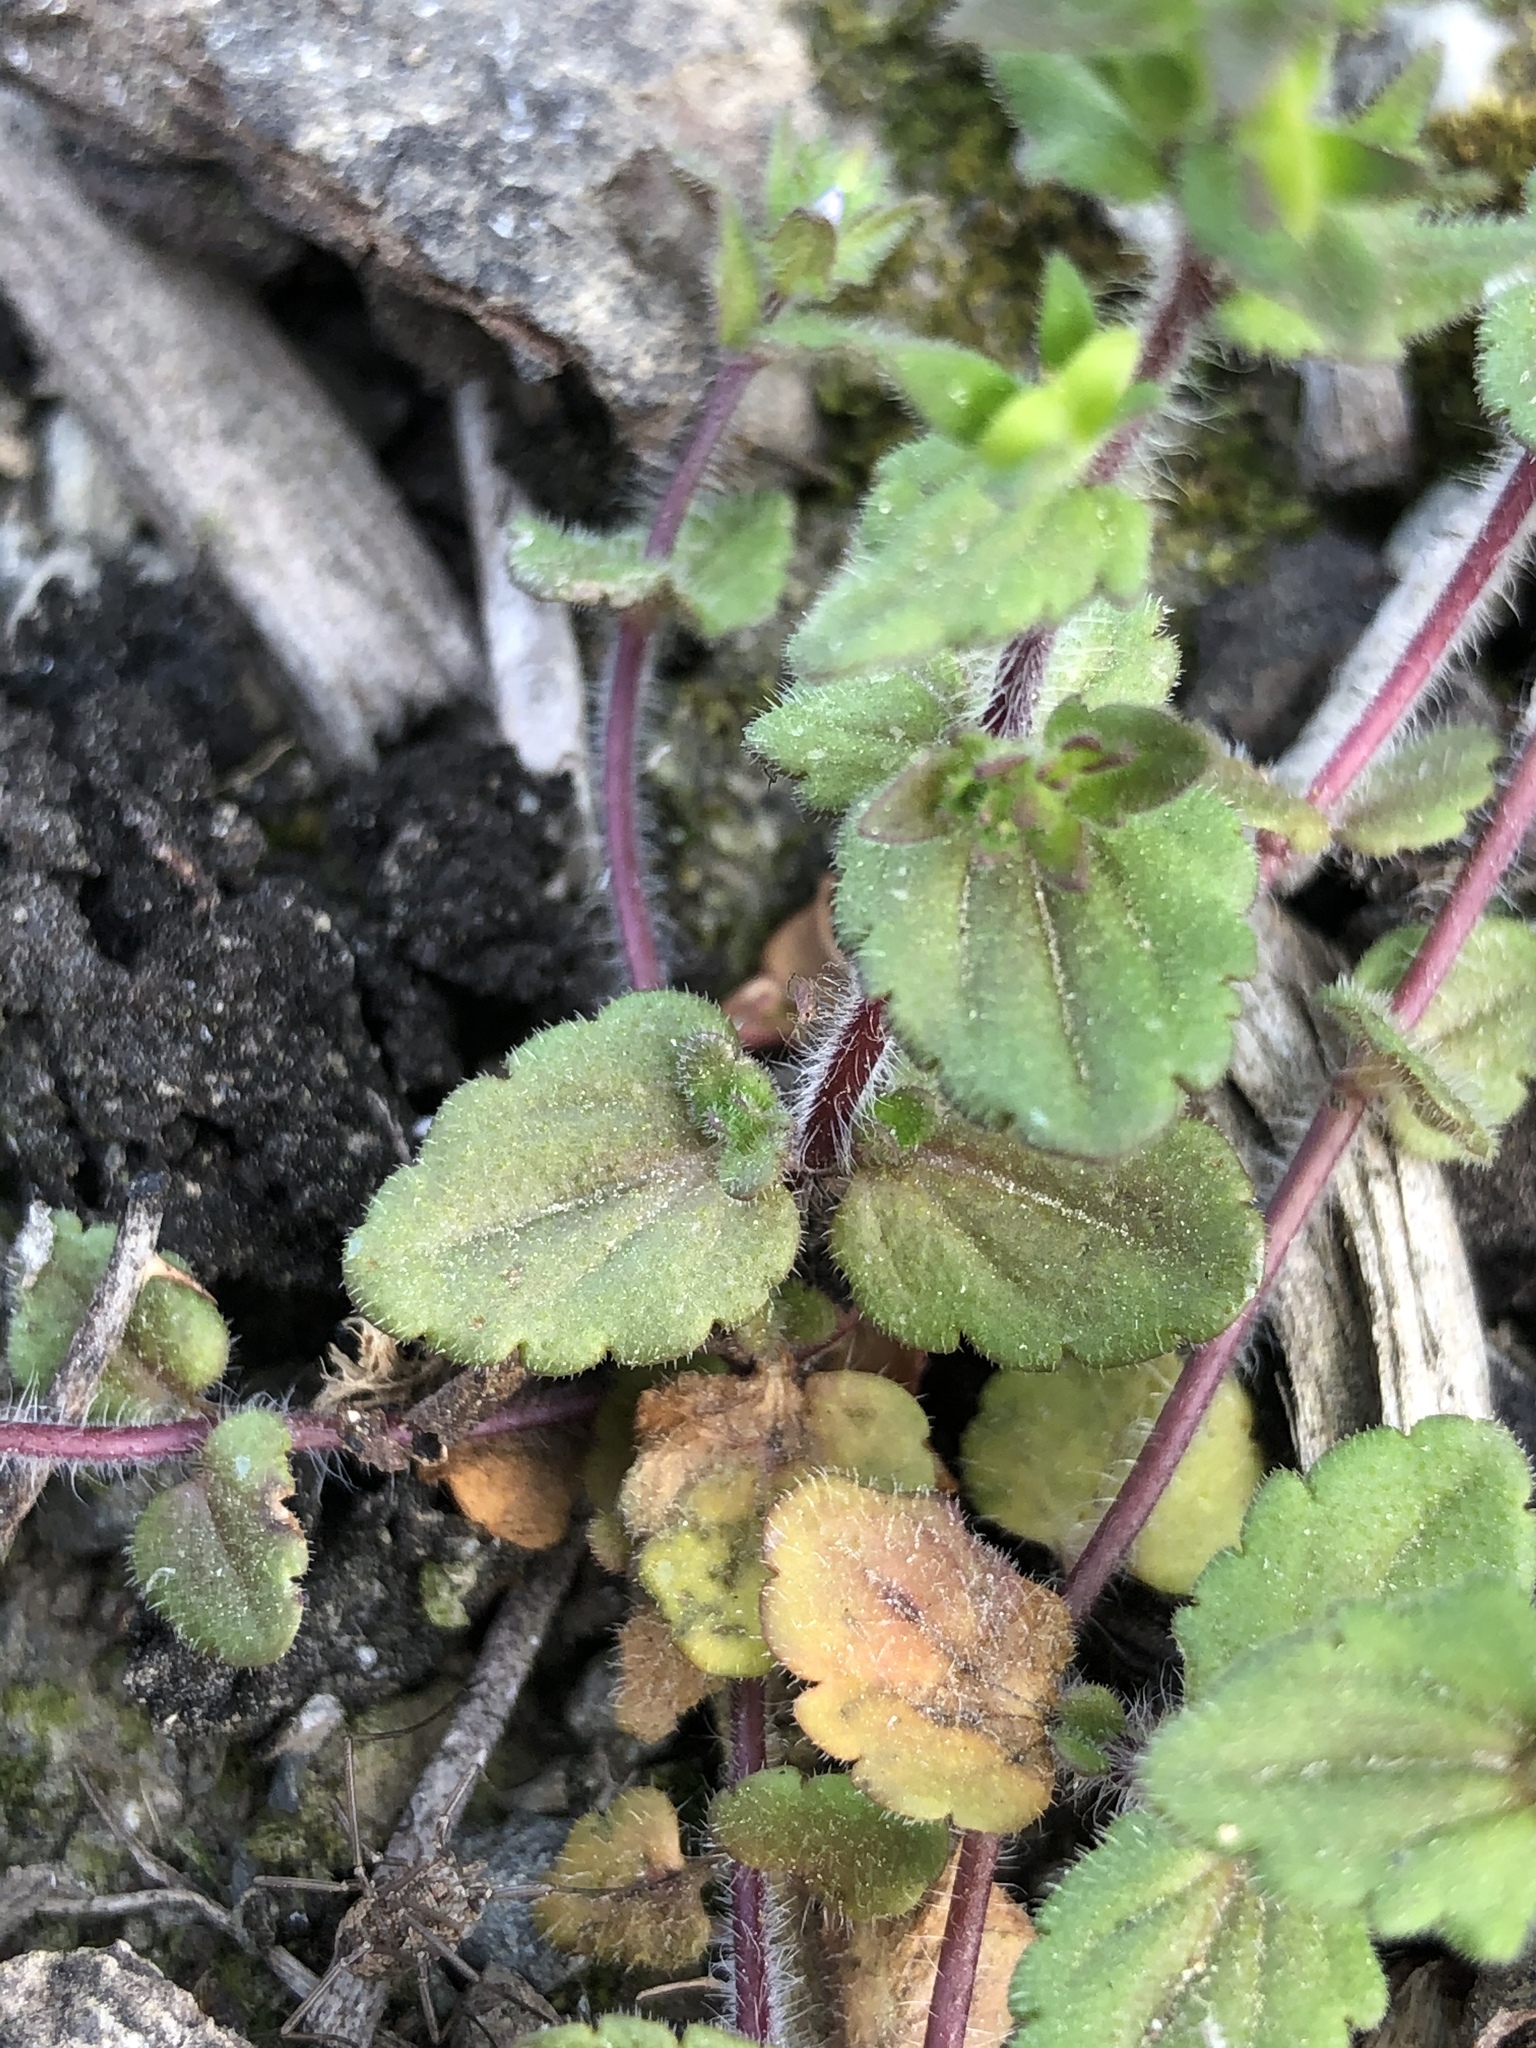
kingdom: Plantae
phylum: Tracheophyta
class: Magnoliopsida
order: Lamiales
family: Plantaginaceae
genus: Veronica
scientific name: Veronica arvensis
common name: Corn speedwell
